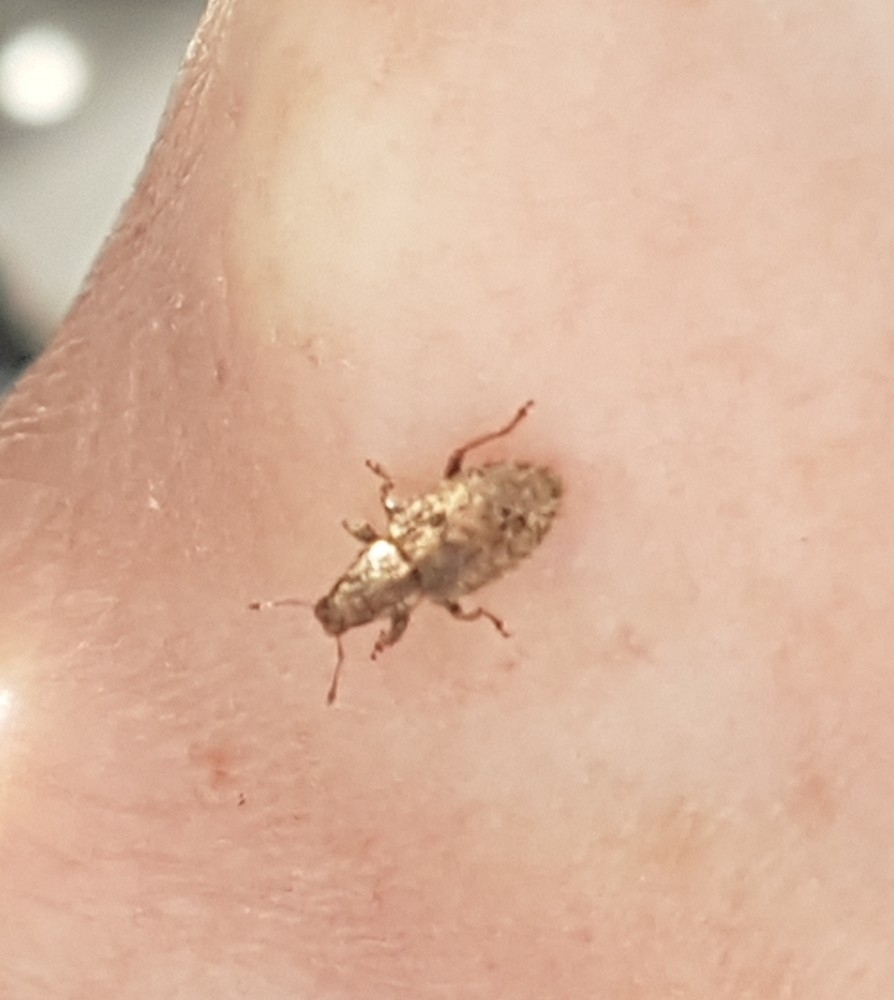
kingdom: Animalia
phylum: Arthropoda
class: Insecta
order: Coleoptera
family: Curculionidae
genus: Sitona
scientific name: Sitona hispidulus
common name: Clover weevil
